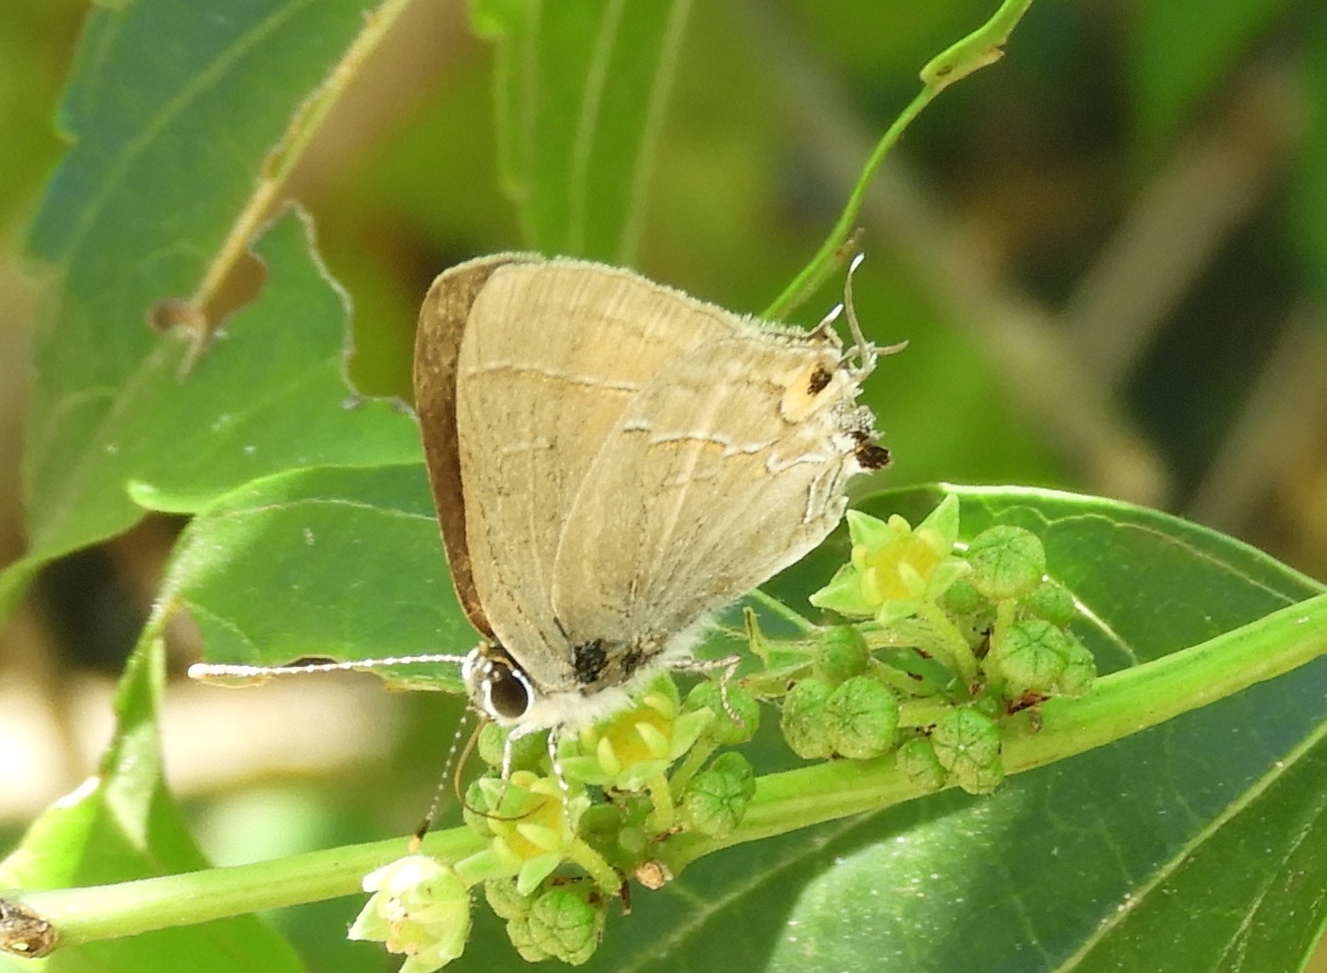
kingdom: Animalia
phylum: Arthropoda
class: Insecta
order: Lepidoptera
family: Lycaenidae
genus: Electrostrymon
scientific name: Electrostrymon
